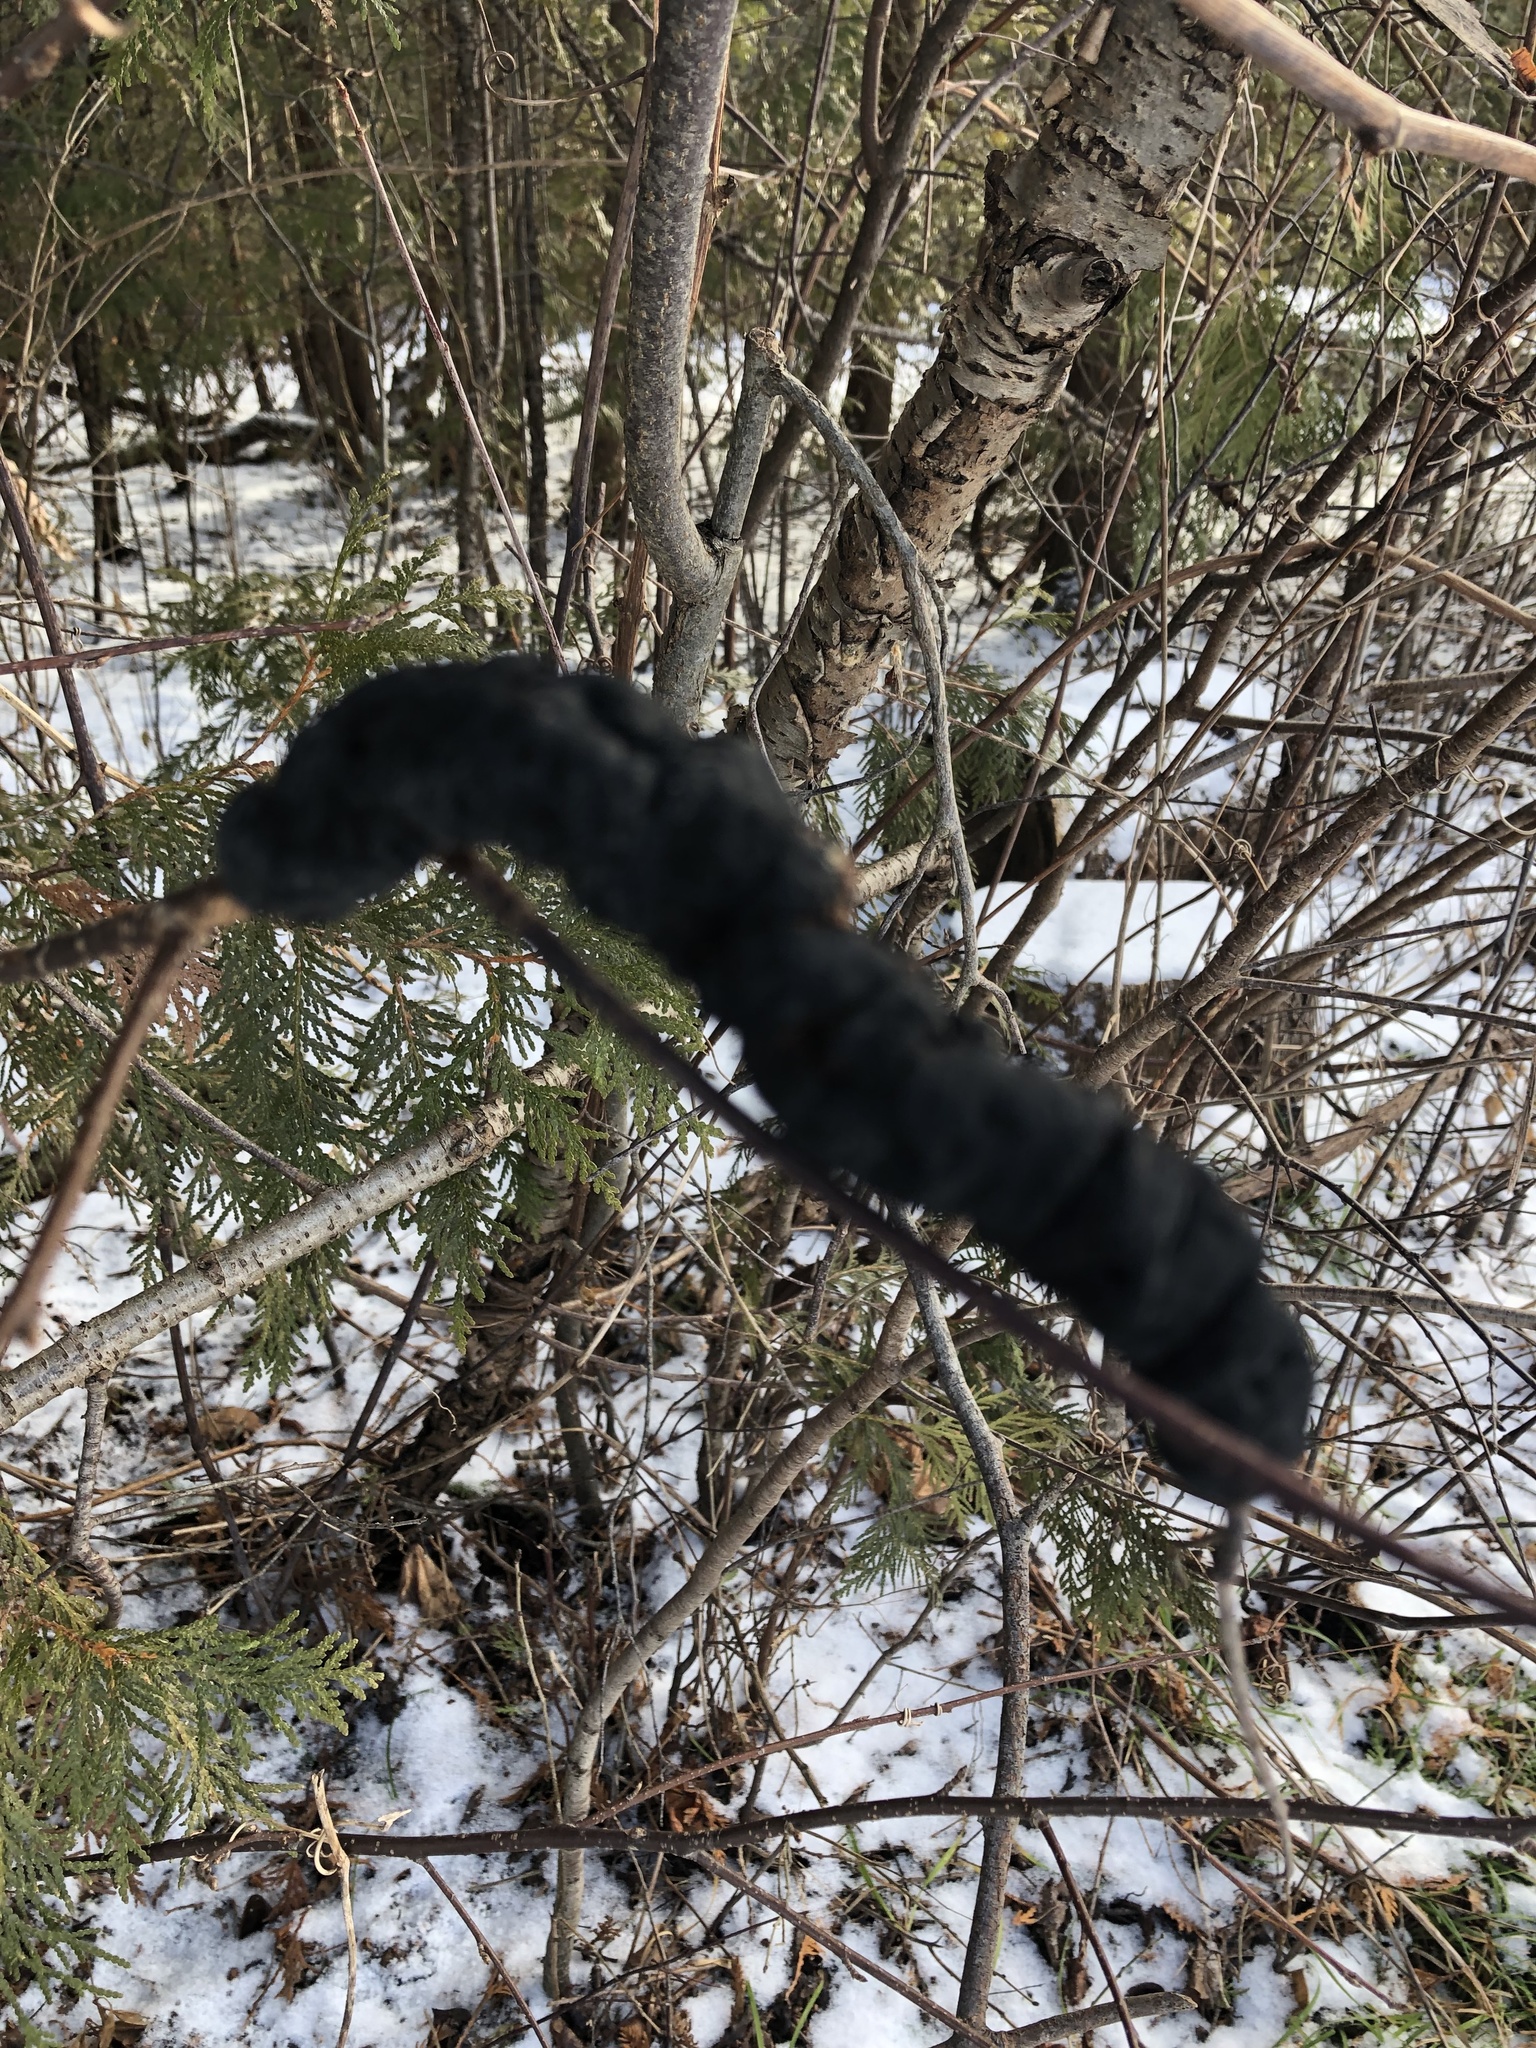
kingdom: Fungi
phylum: Ascomycota
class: Dothideomycetes
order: Venturiales
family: Venturiaceae
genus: Apiosporina
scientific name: Apiosporina morbosa
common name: Black knot
